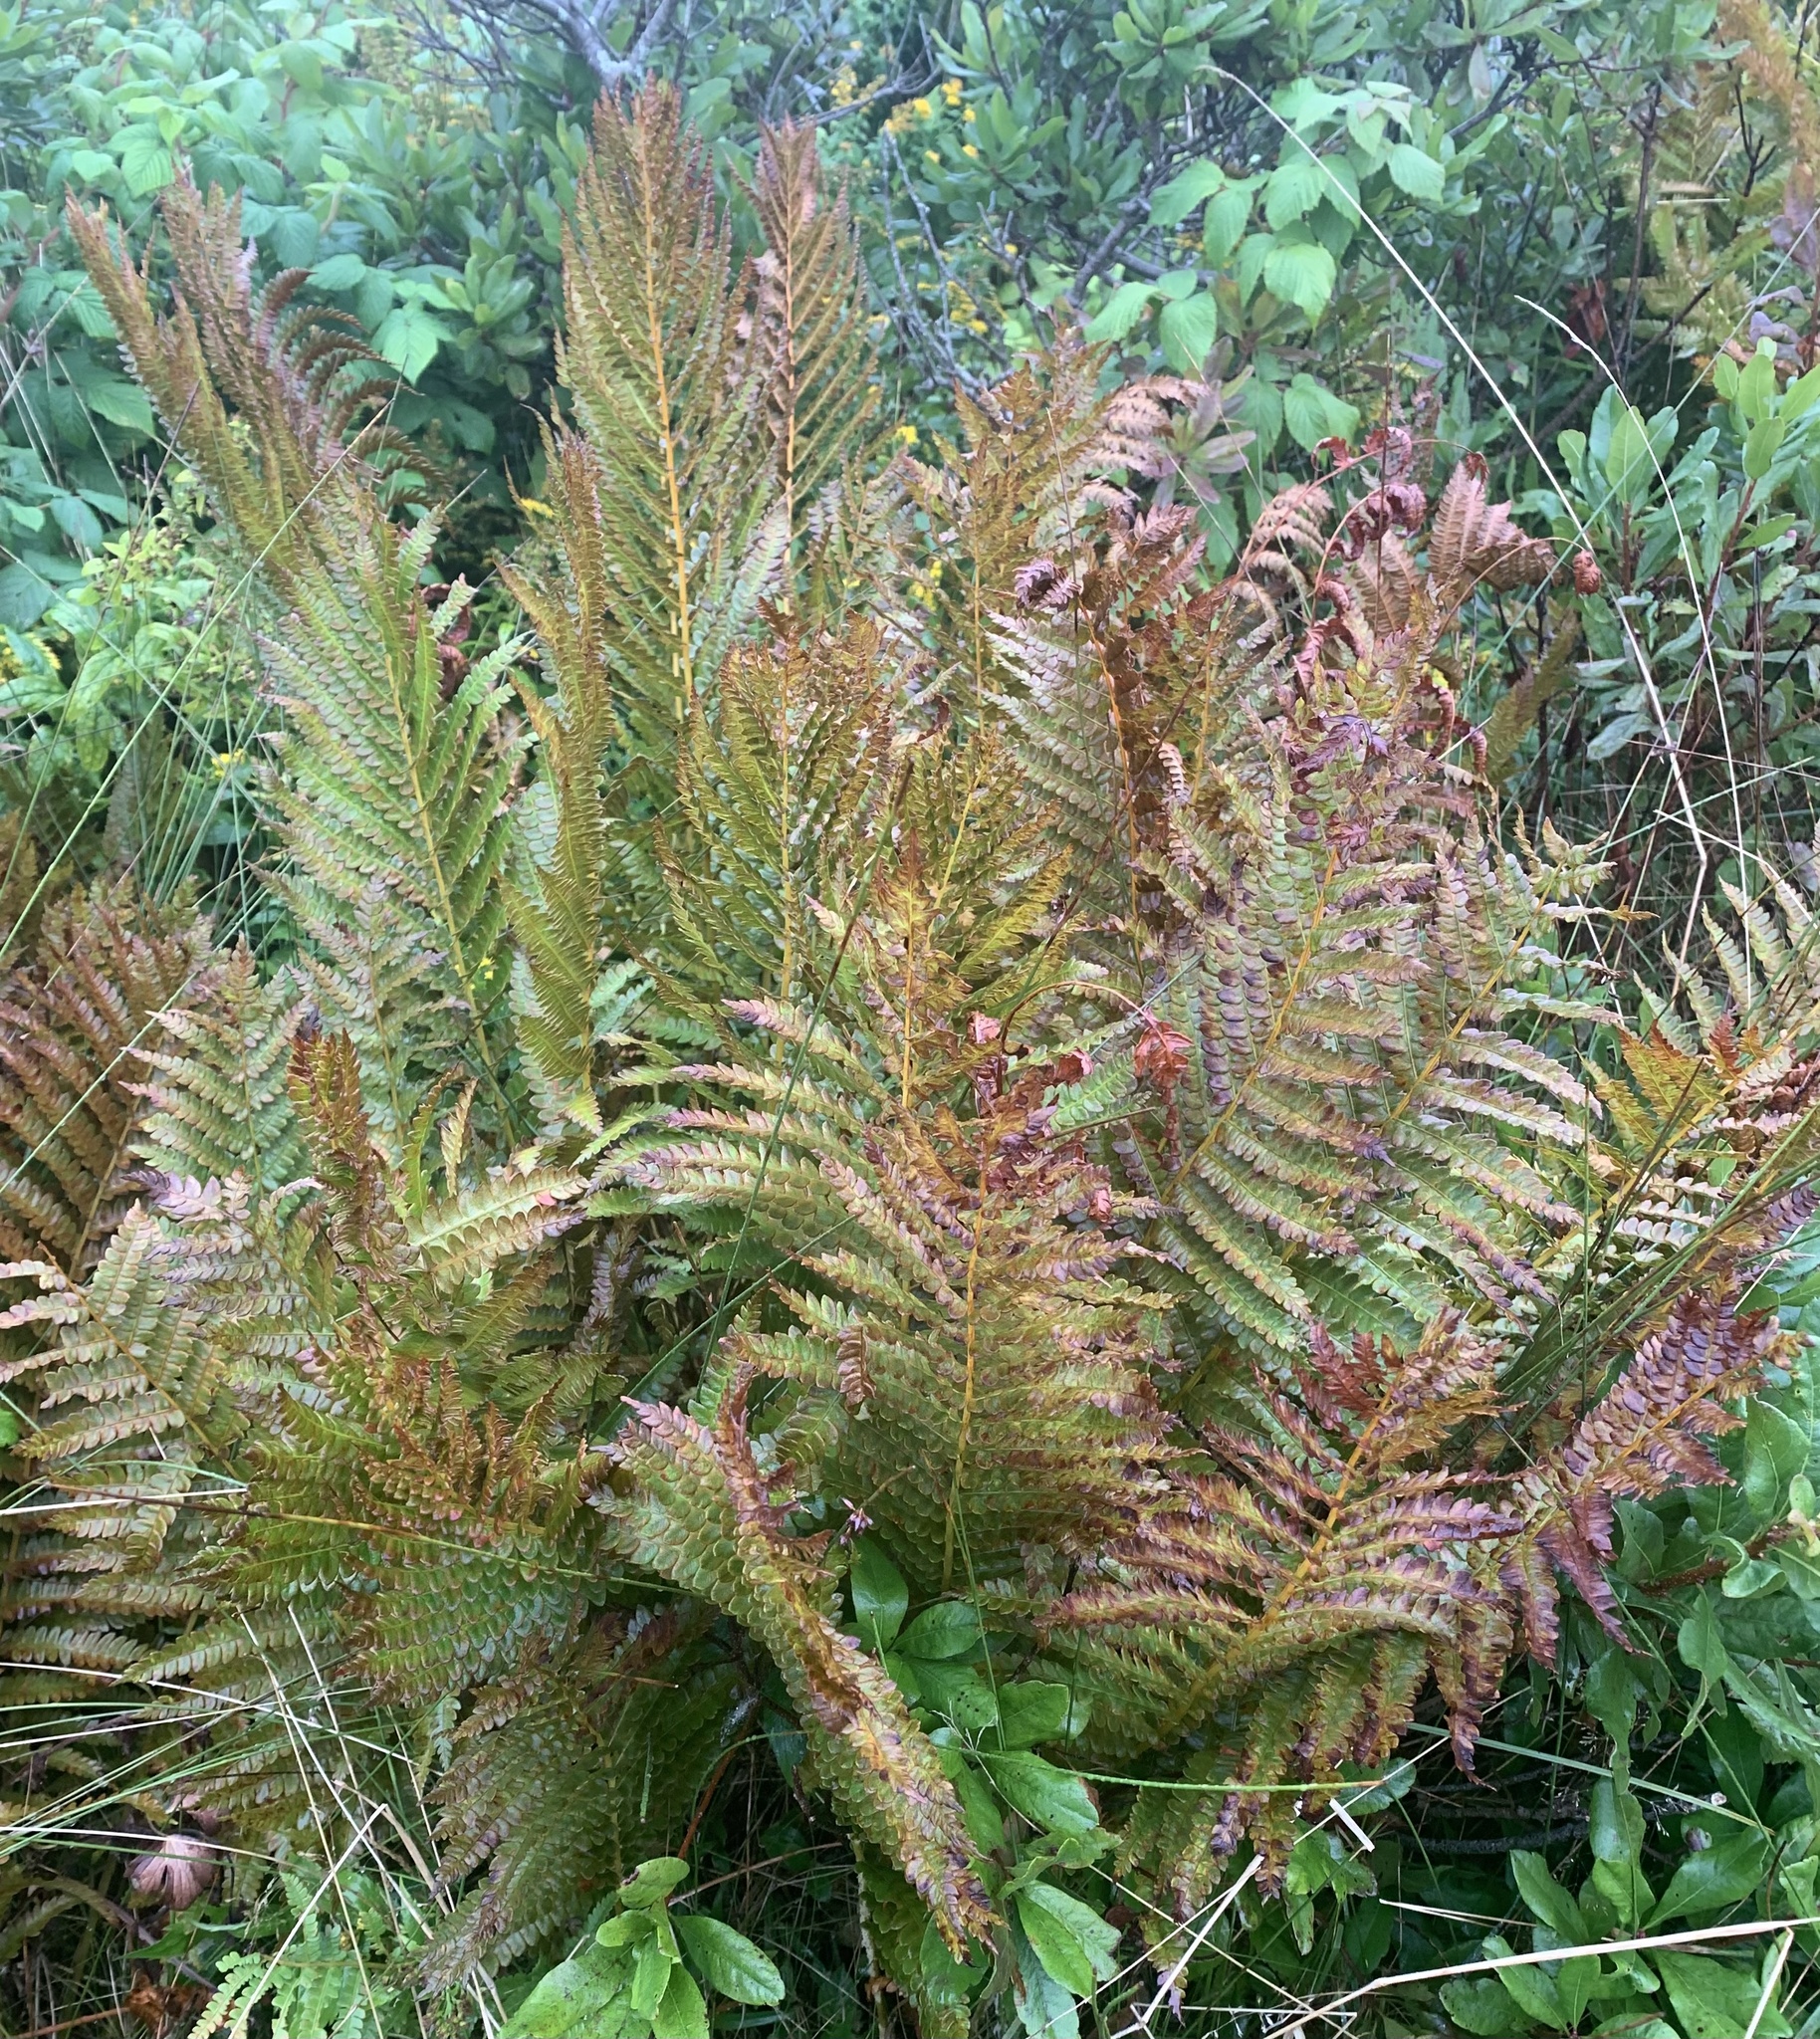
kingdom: Plantae
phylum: Tracheophyta
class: Polypodiopsida
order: Osmundales
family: Osmundaceae
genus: Osmundastrum
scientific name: Osmundastrum cinnamomeum
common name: Cinnamon fern
